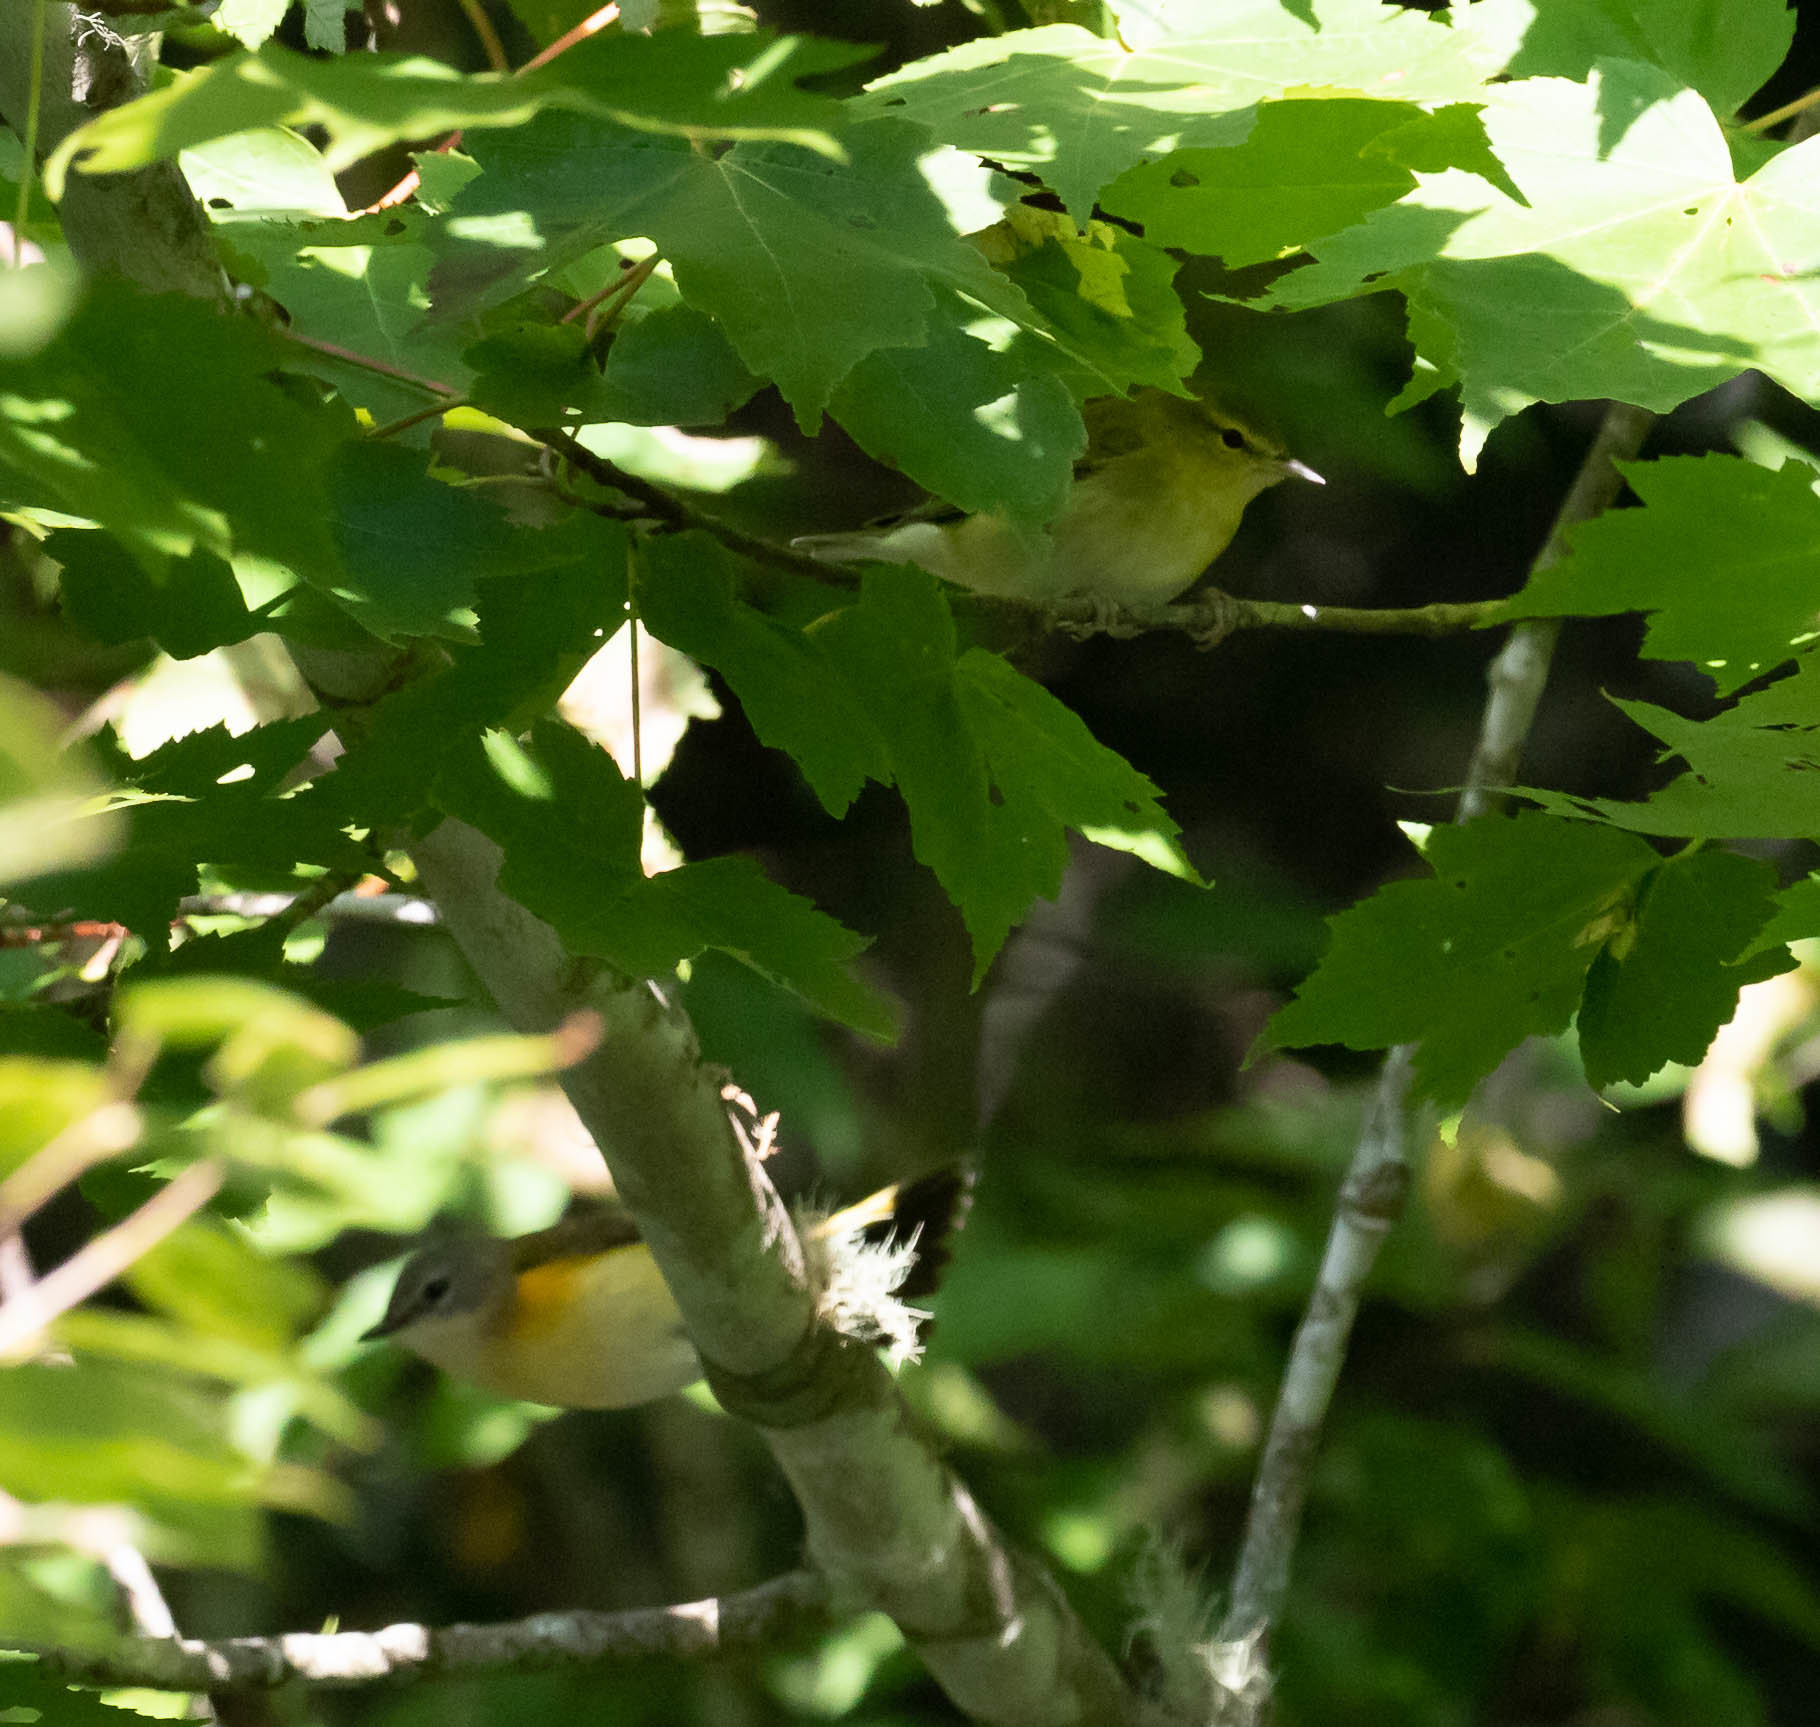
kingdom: Animalia
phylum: Chordata
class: Aves
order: Passeriformes
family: Parulidae
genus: Setophaga
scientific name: Setophaga ruticilla
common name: American redstart
